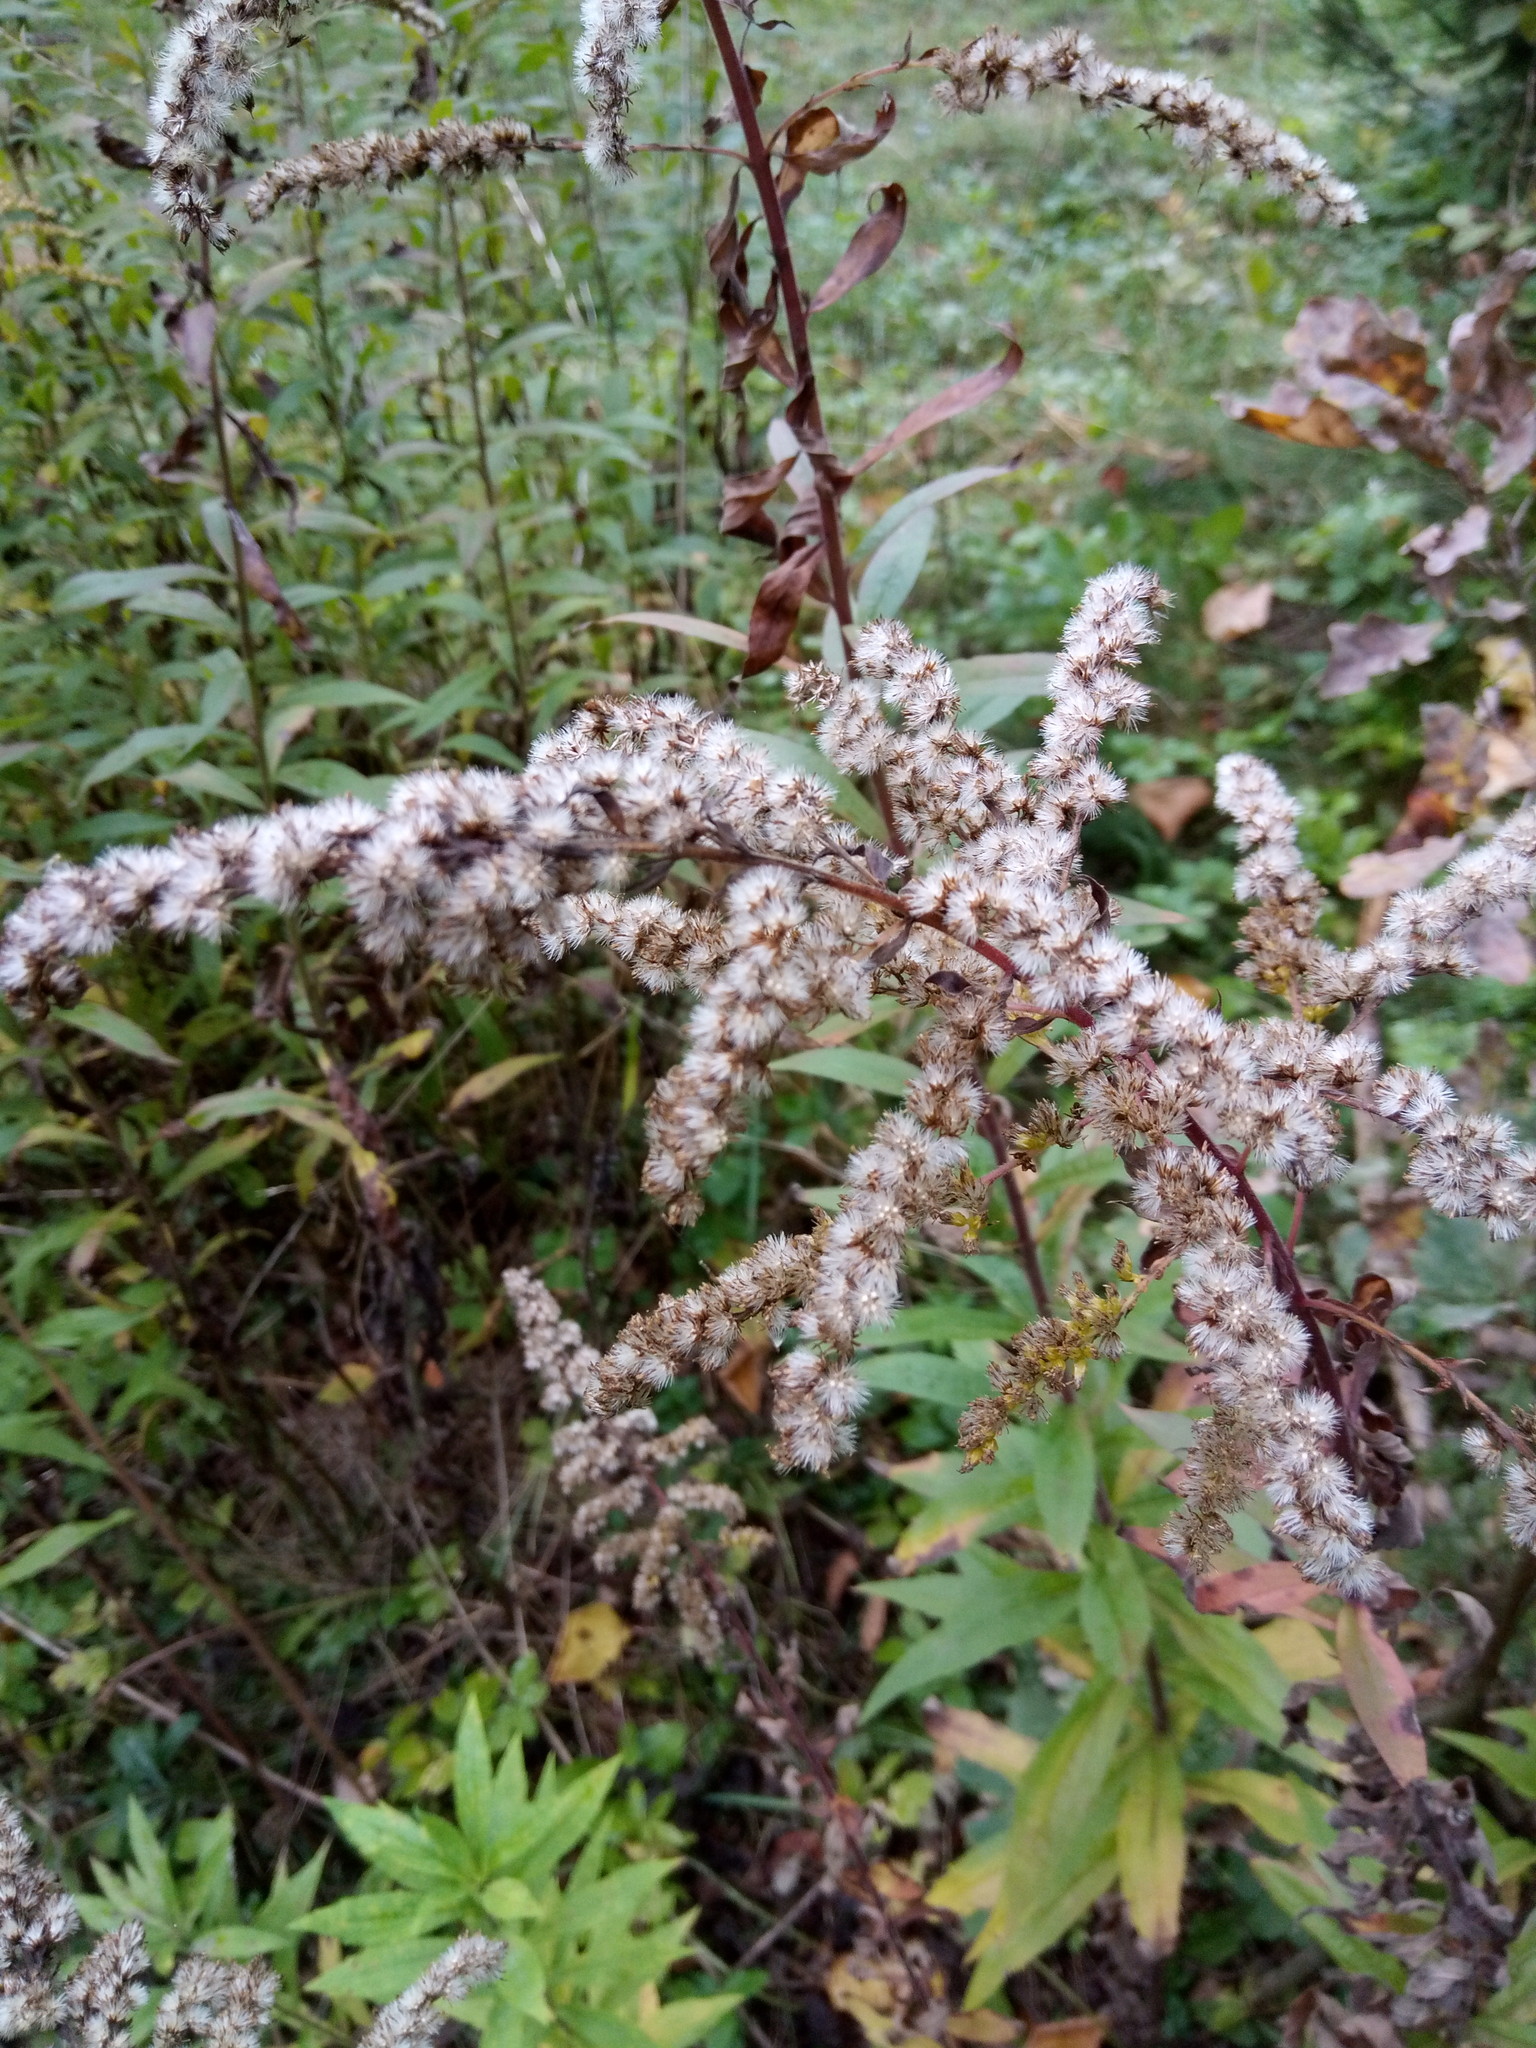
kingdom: Plantae
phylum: Tracheophyta
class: Magnoliopsida
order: Asterales
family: Asteraceae
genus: Solidago
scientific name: Solidago canadensis
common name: Canada goldenrod
